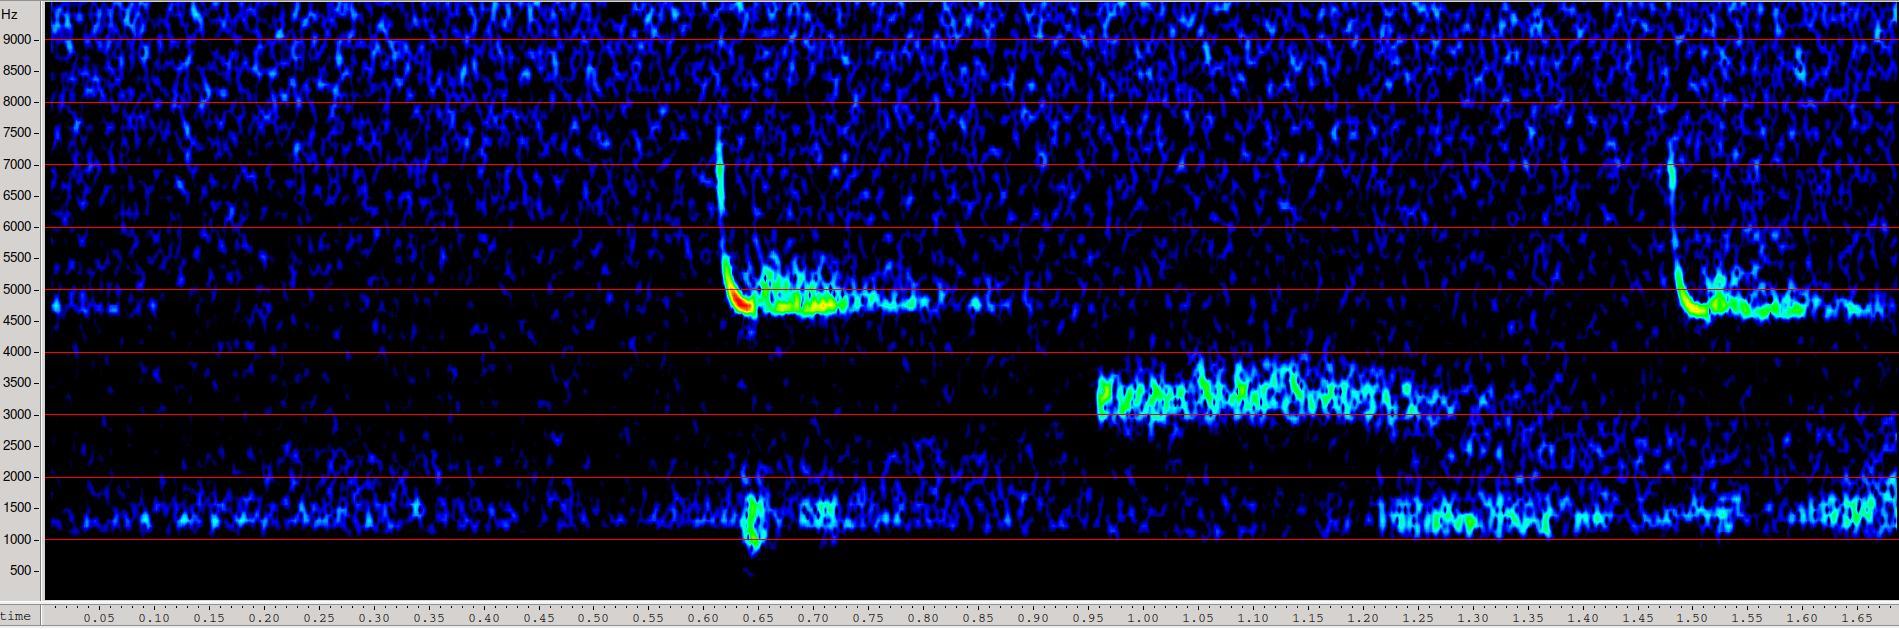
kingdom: Animalia
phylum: Arthropoda
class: Insecta
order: Orthoptera
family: Tettigoniidae
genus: Leptophyes
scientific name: Leptophyes punctatissima
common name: Speckled bush-cricket
